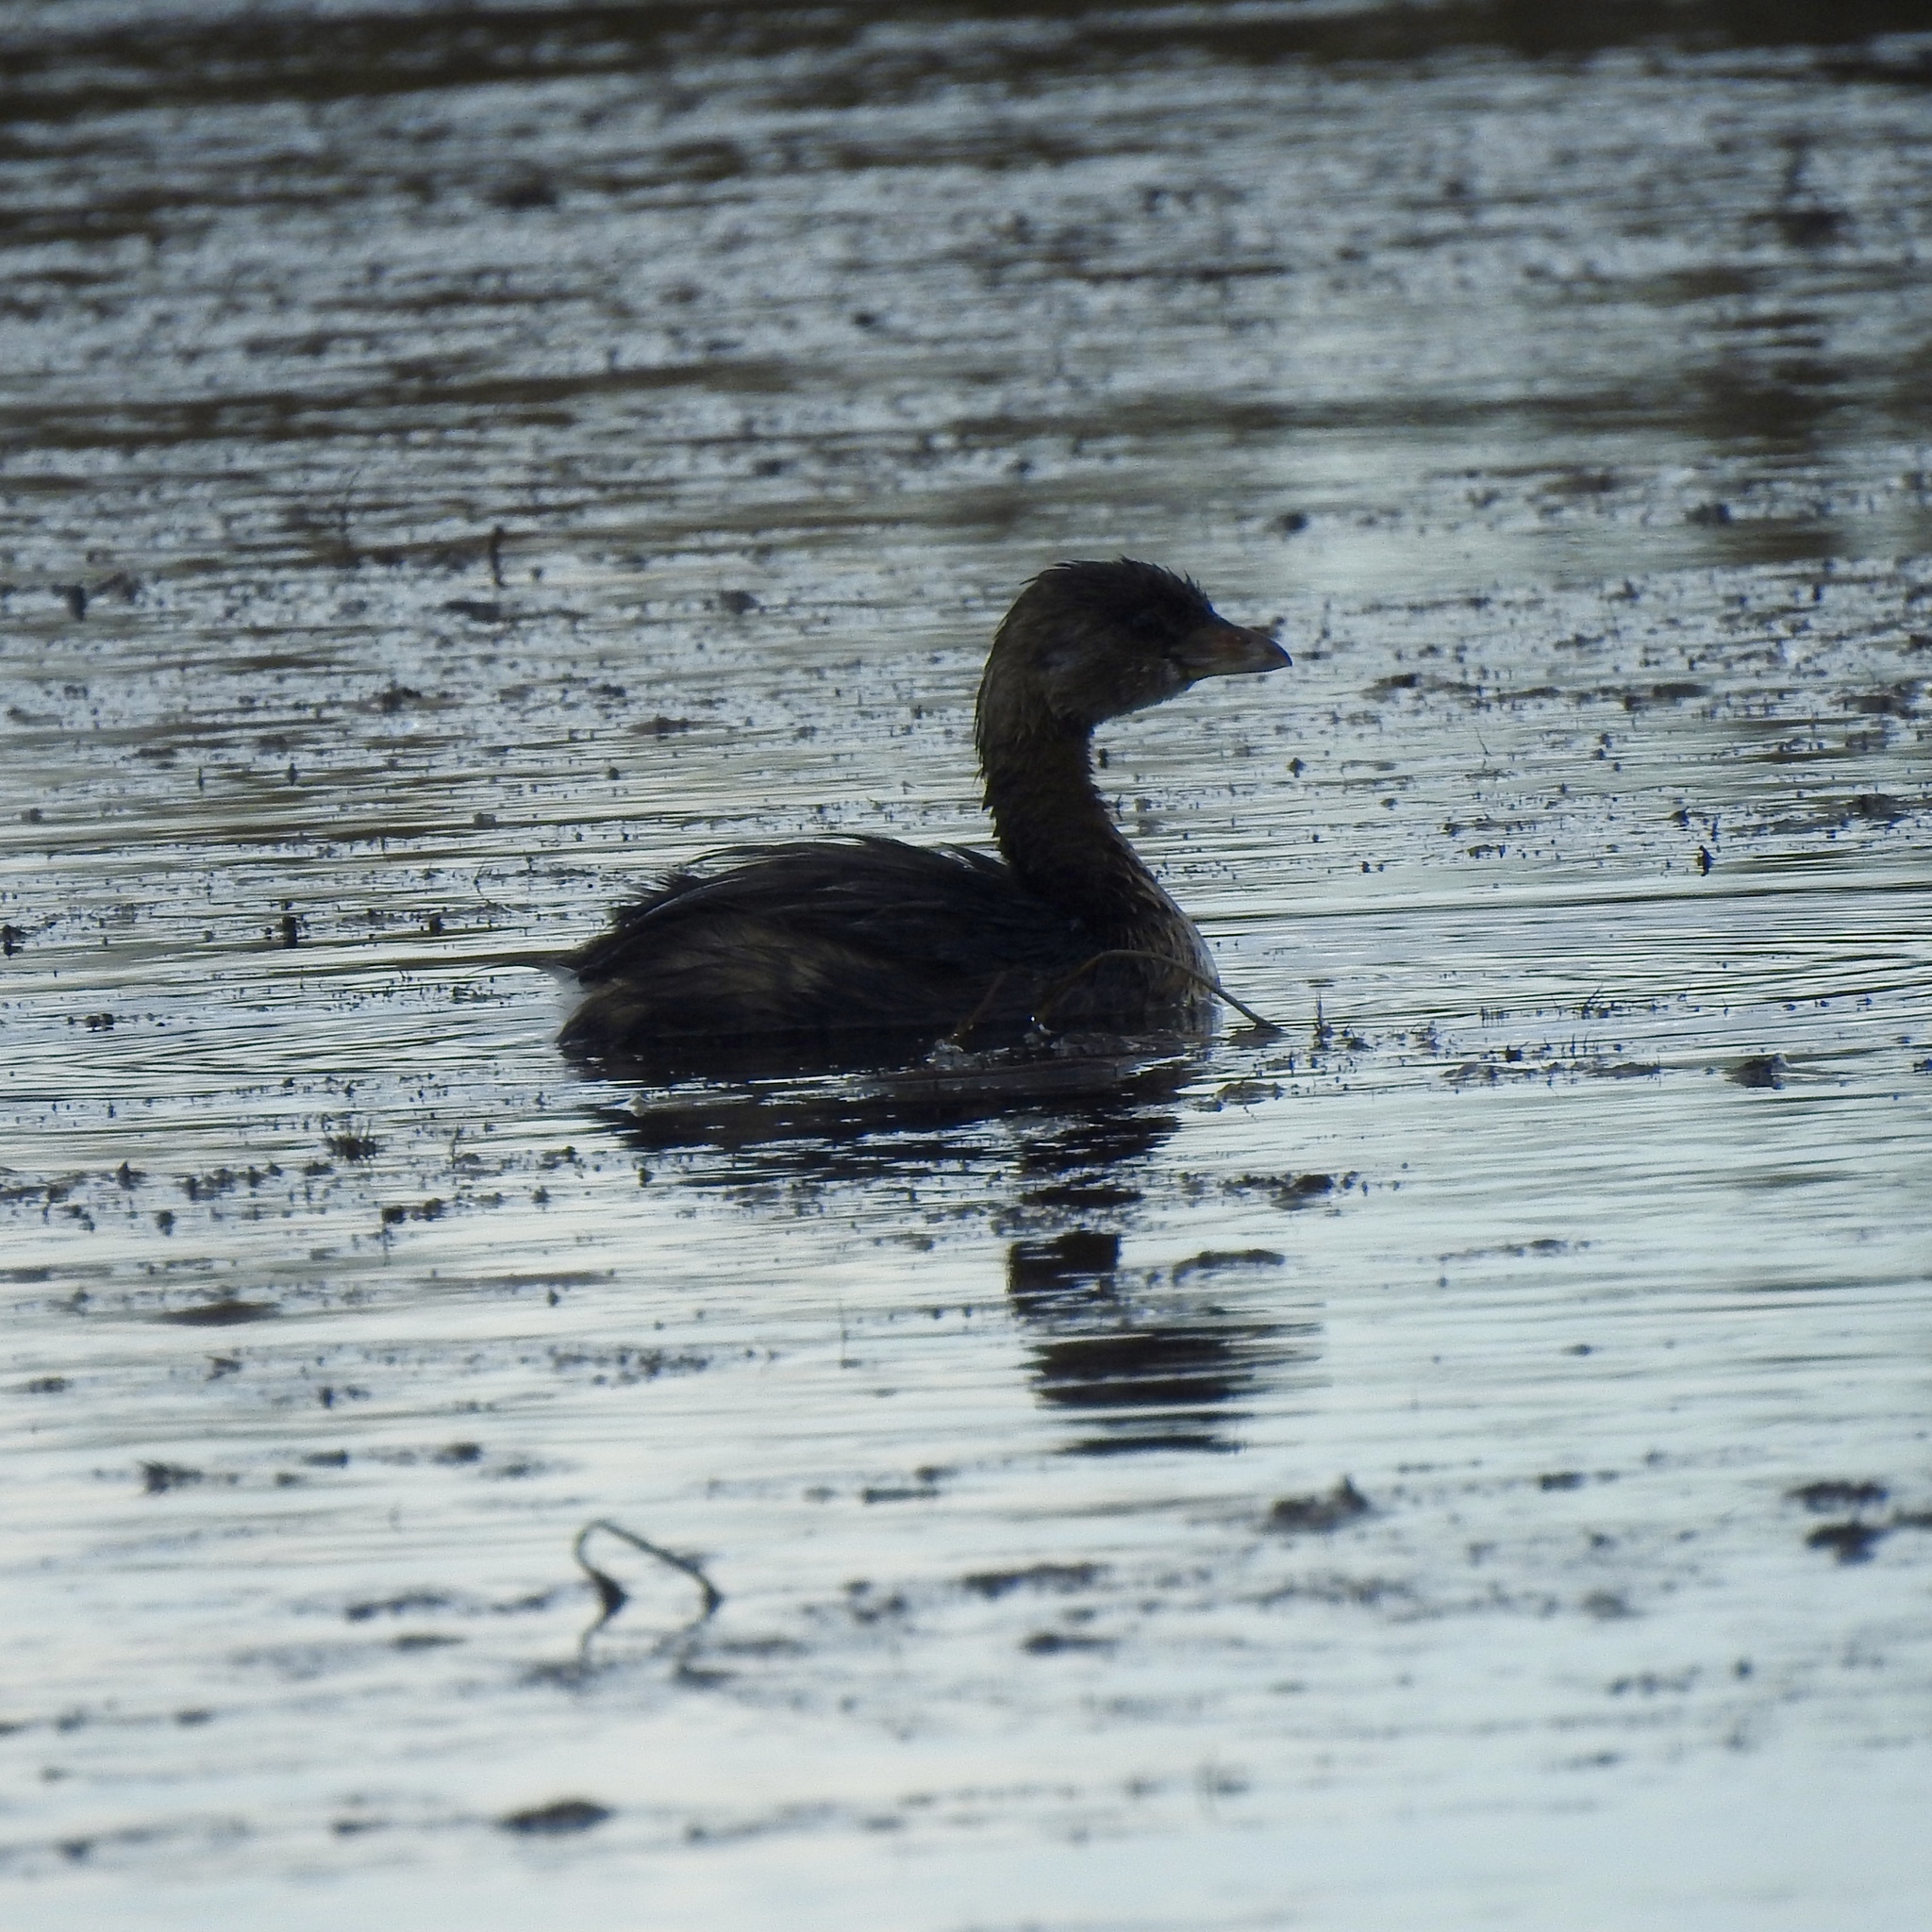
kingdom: Animalia
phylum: Chordata
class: Aves
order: Podicipediformes
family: Podicipedidae
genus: Podilymbus
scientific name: Podilymbus podiceps
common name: Pied-billed grebe
